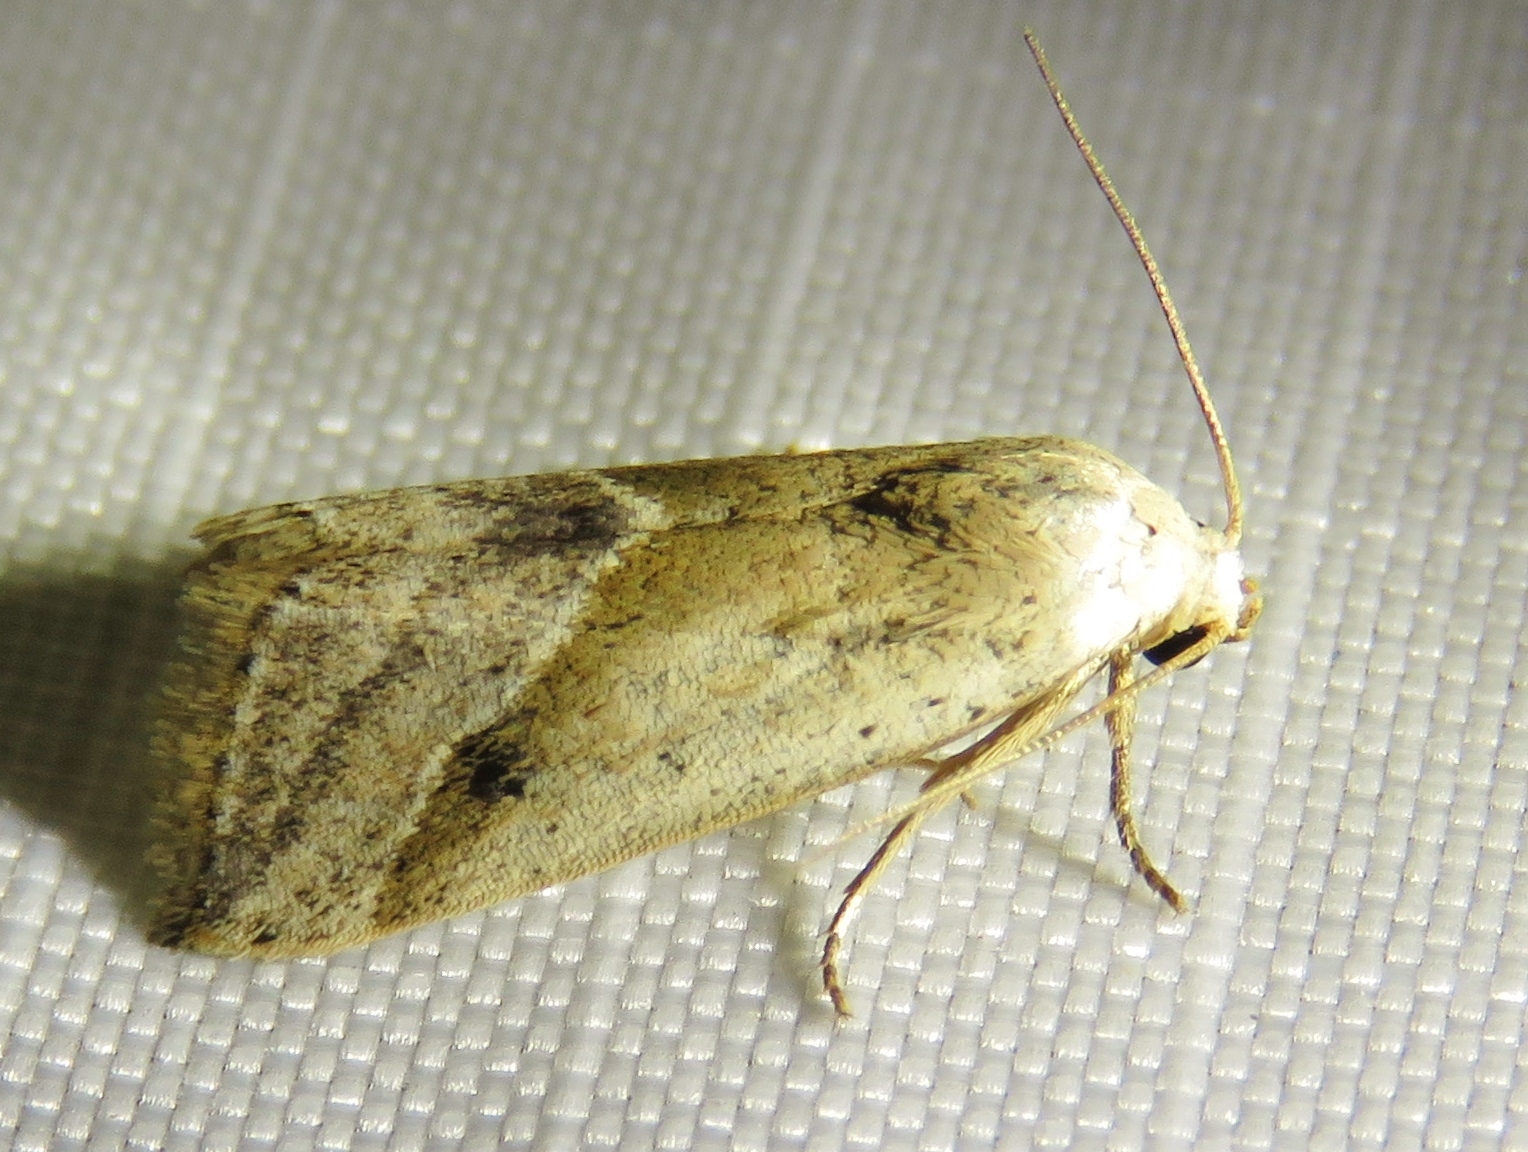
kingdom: Animalia
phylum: Arthropoda
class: Insecta
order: Lepidoptera
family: Noctuidae
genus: Micrathetis
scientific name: Micrathetis tecnion
